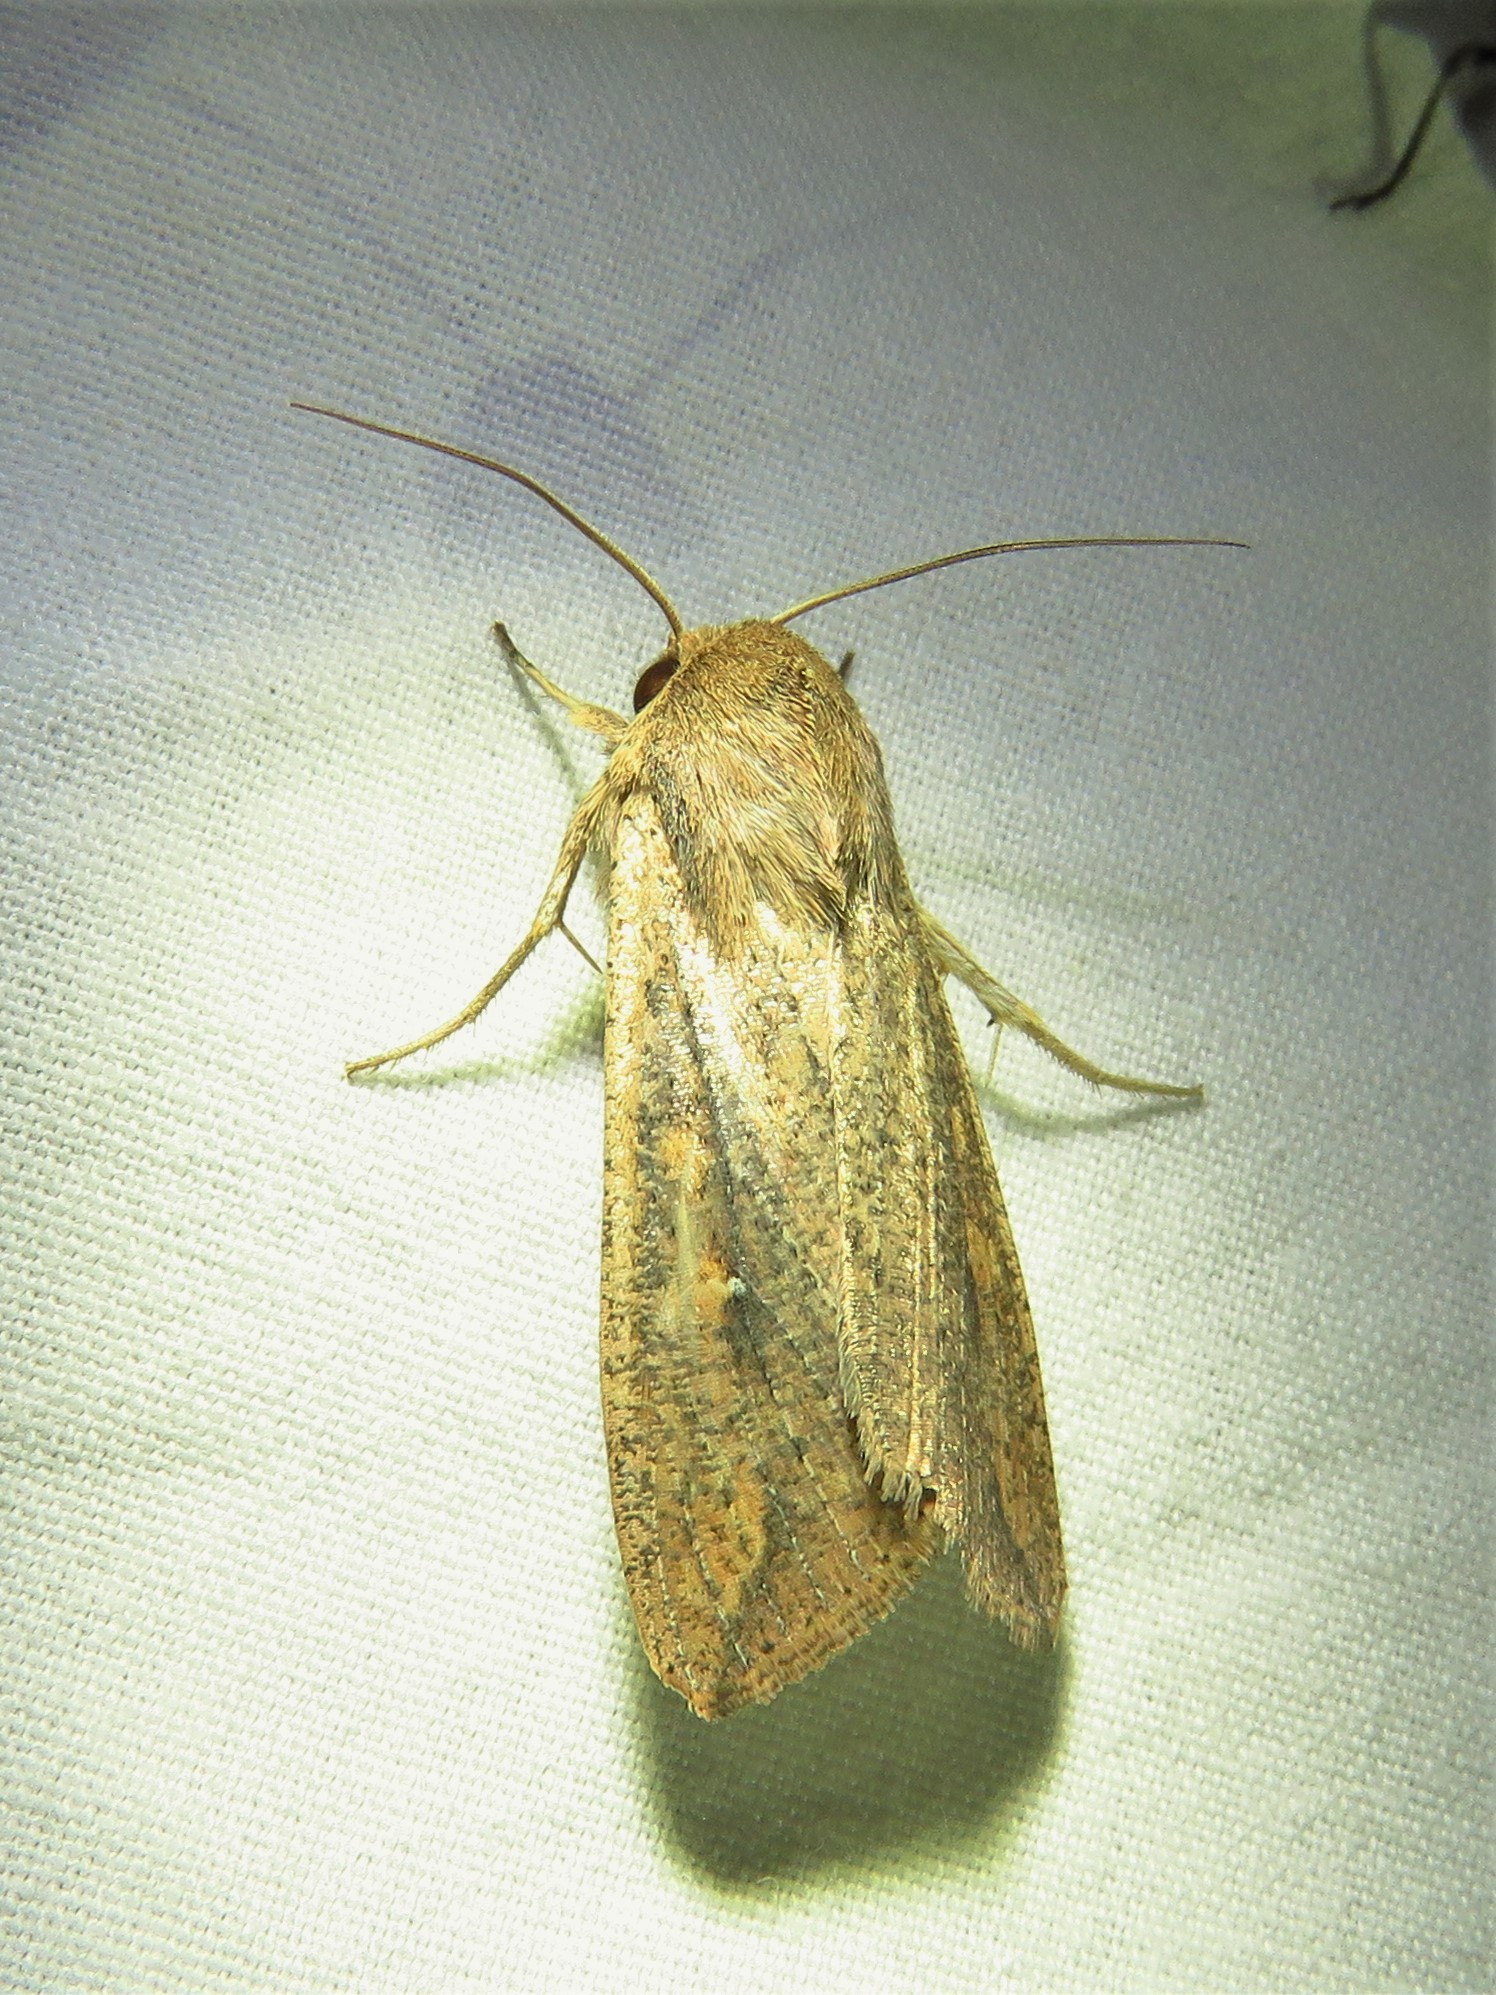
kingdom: Animalia
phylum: Arthropoda
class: Insecta
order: Lepidoptera
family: Noctuidae
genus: Mythimna
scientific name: Mythimna unipuncta
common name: White-speck
